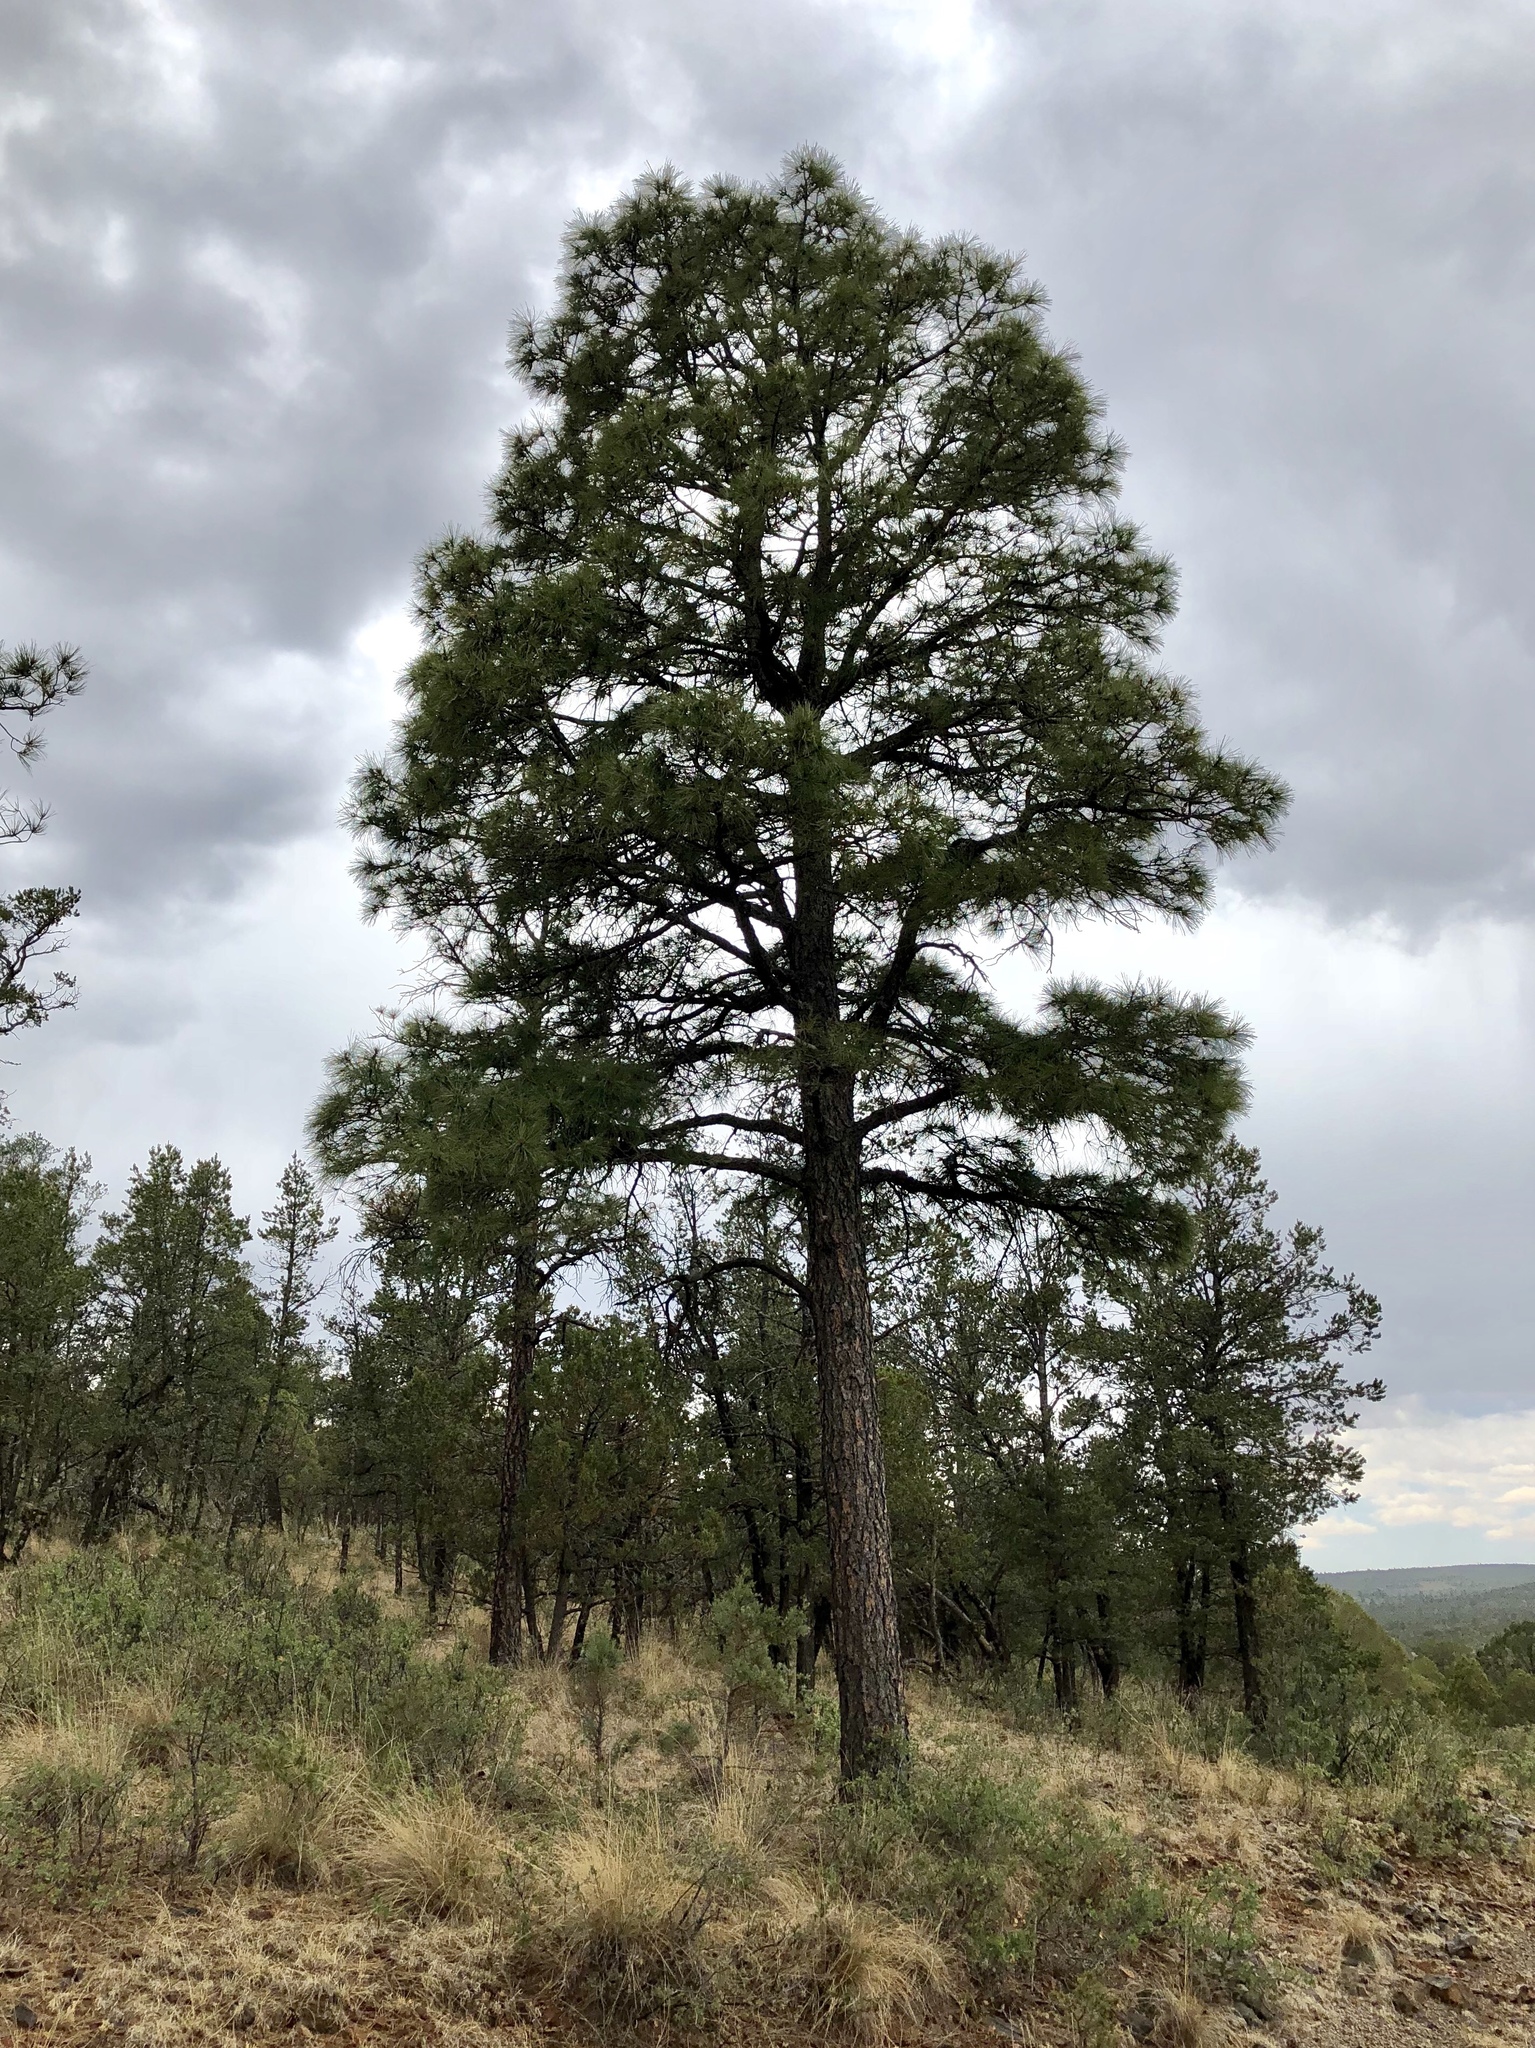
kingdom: Plantae
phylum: Tracheophyta
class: Pinopsida
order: Pinales
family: Pinaceae
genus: Pinus
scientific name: Pinus ponderosa
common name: Western yellow-pine
